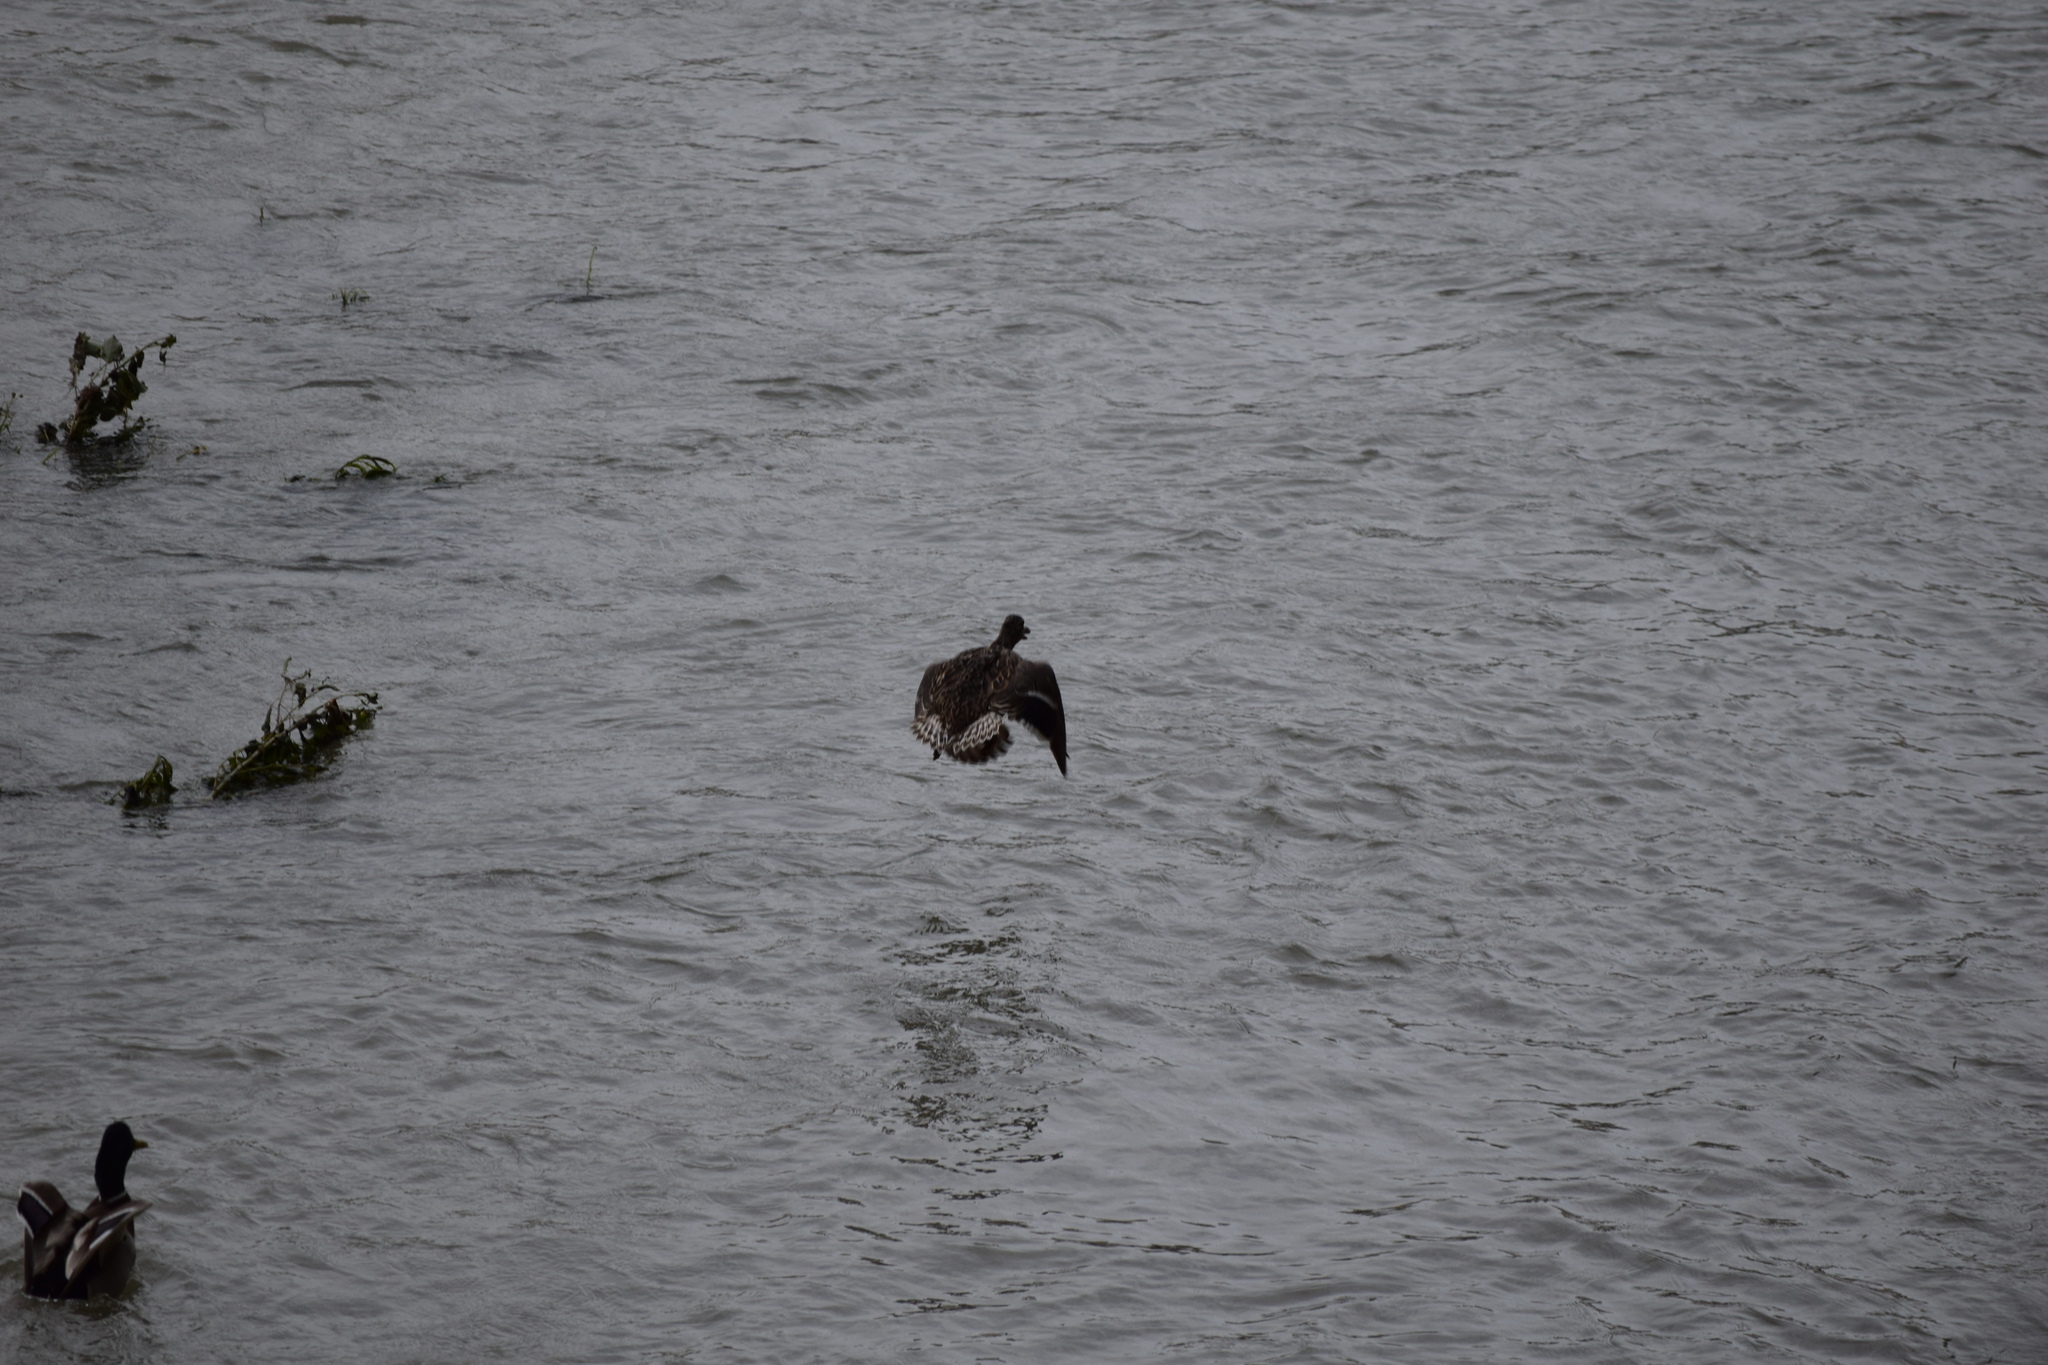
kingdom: Animalia
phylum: Chordata
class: Aves
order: Anseriformes
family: Anatidae
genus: Anas
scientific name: Anas platyrhynchos
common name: Mallard
